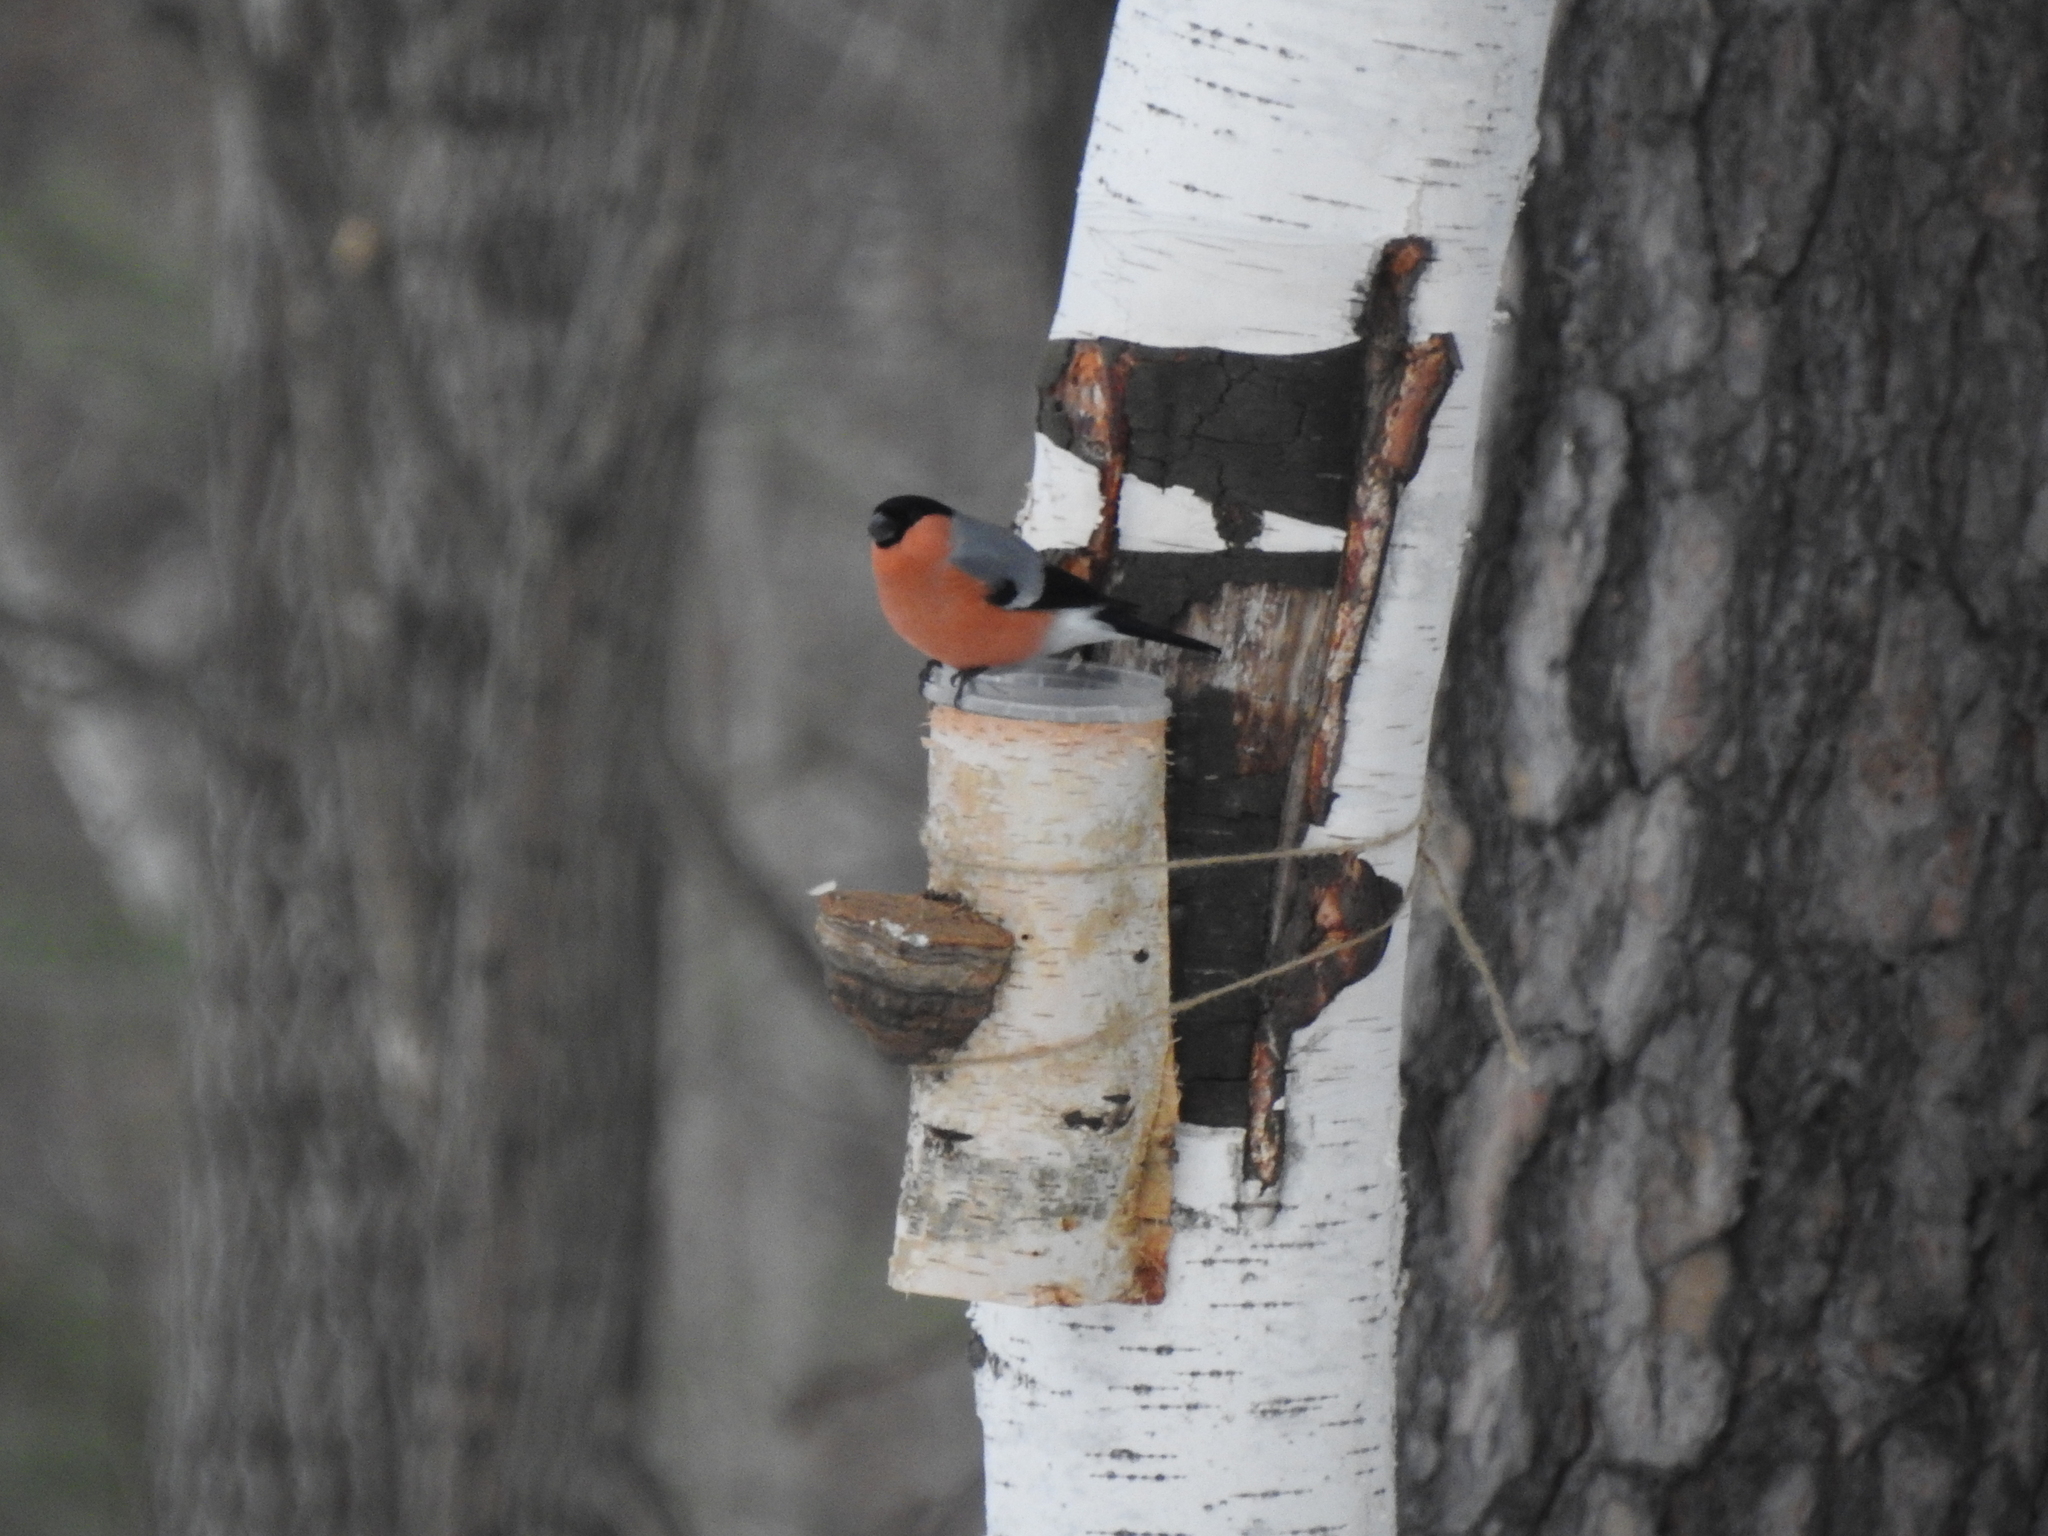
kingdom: Animalia
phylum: Chordata
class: Aves
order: Passeriformes
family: Fringillidae
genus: Pyrrhula
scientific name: Pyrrhula pyrrhula
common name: Eurasian bullfinch
